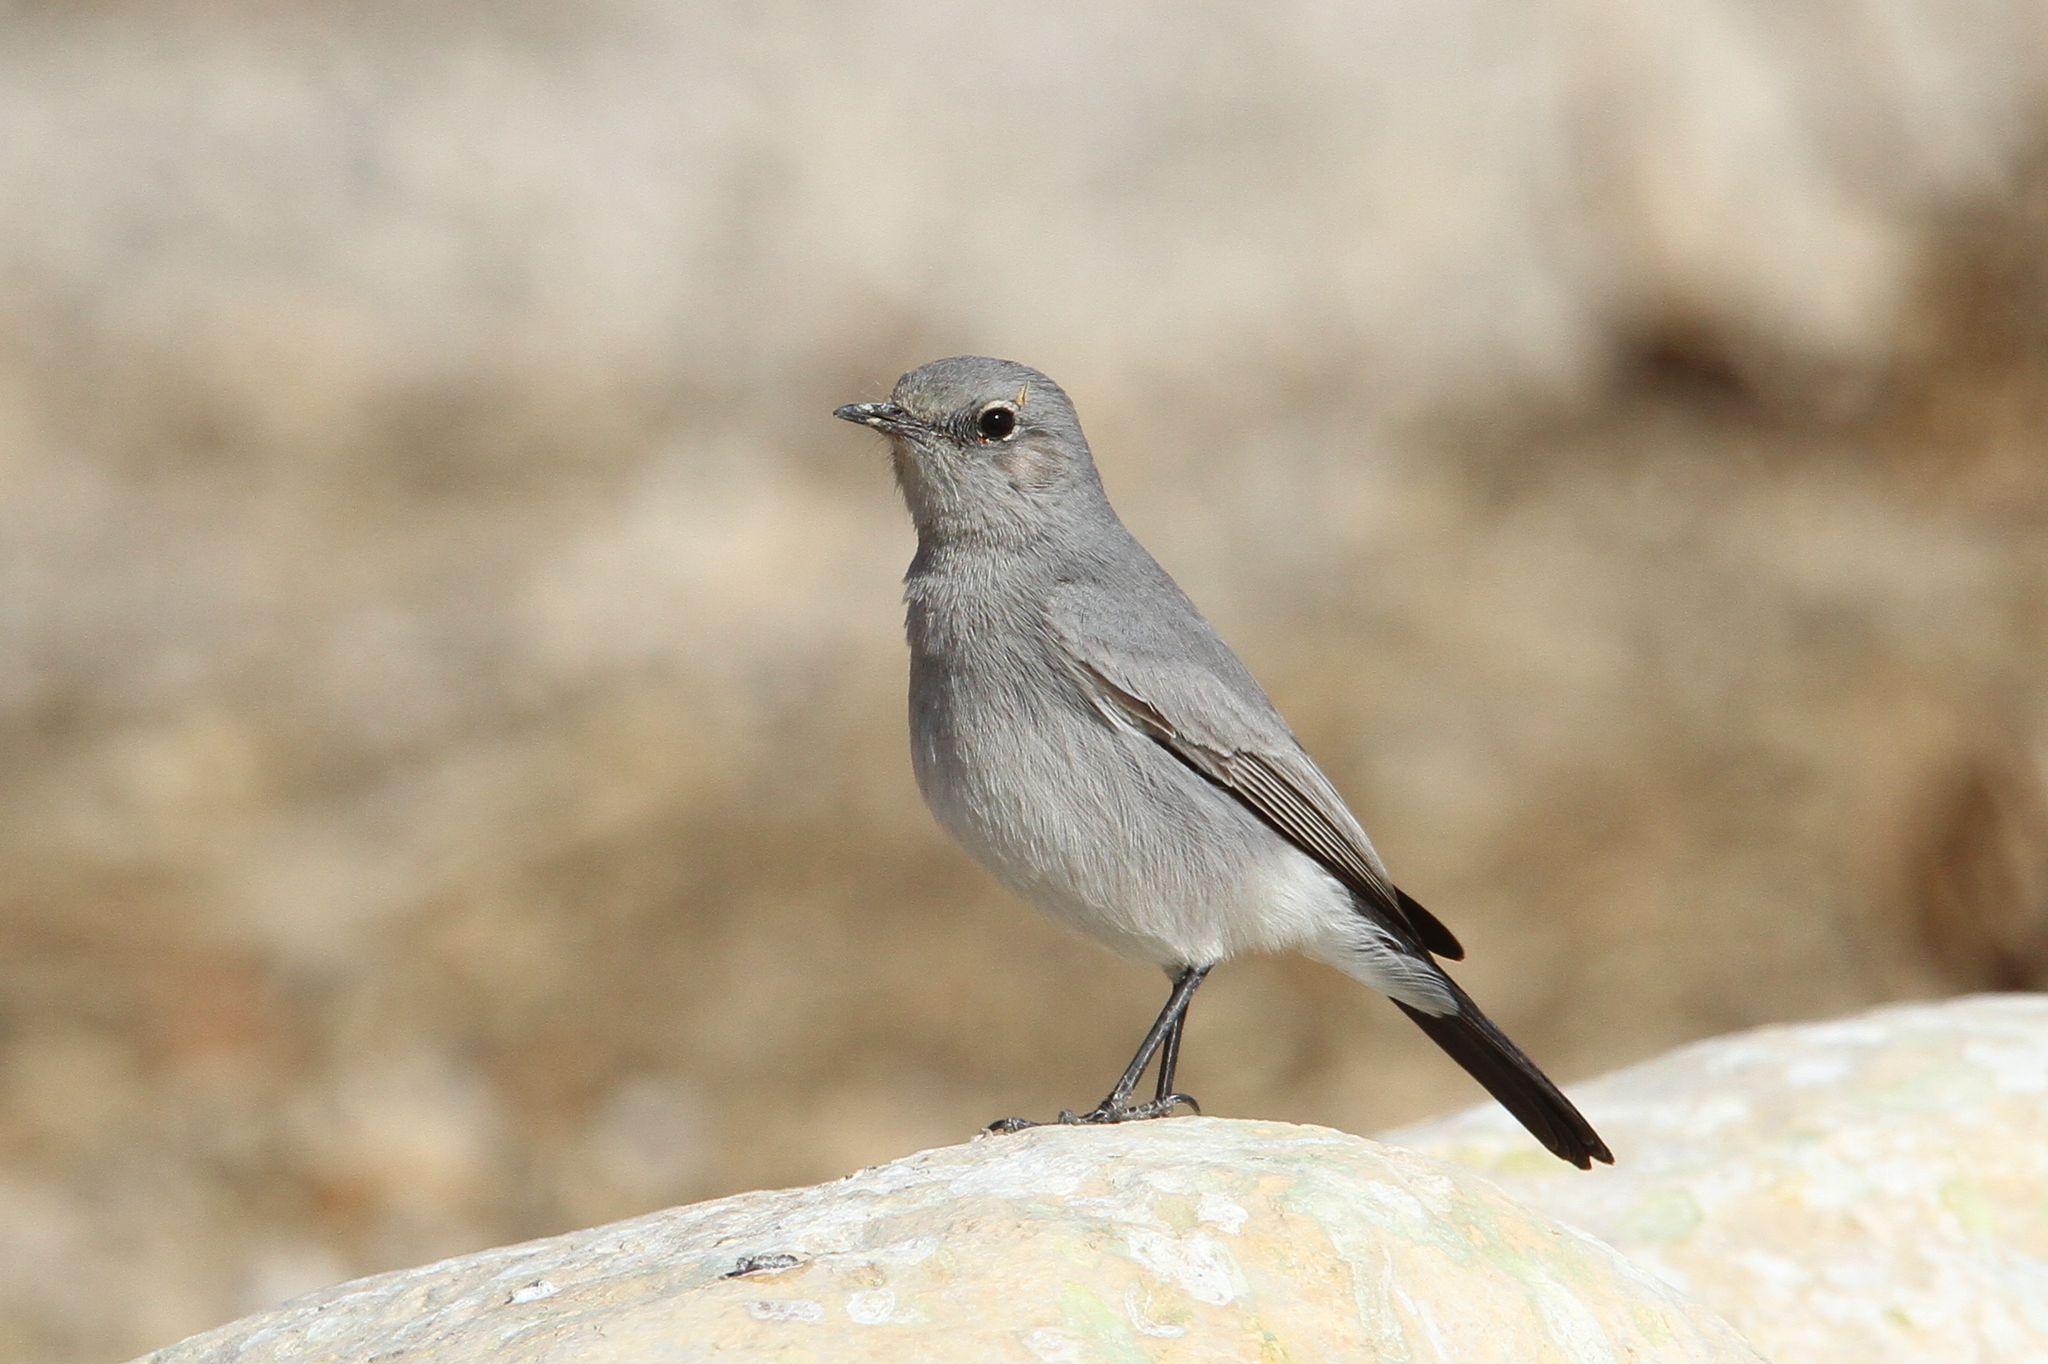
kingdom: Animalia
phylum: Chordata
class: Aves
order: Passeriformes
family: Muscicapidae
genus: Oenanthe
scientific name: Oenanthe melanura
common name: Blackstart
